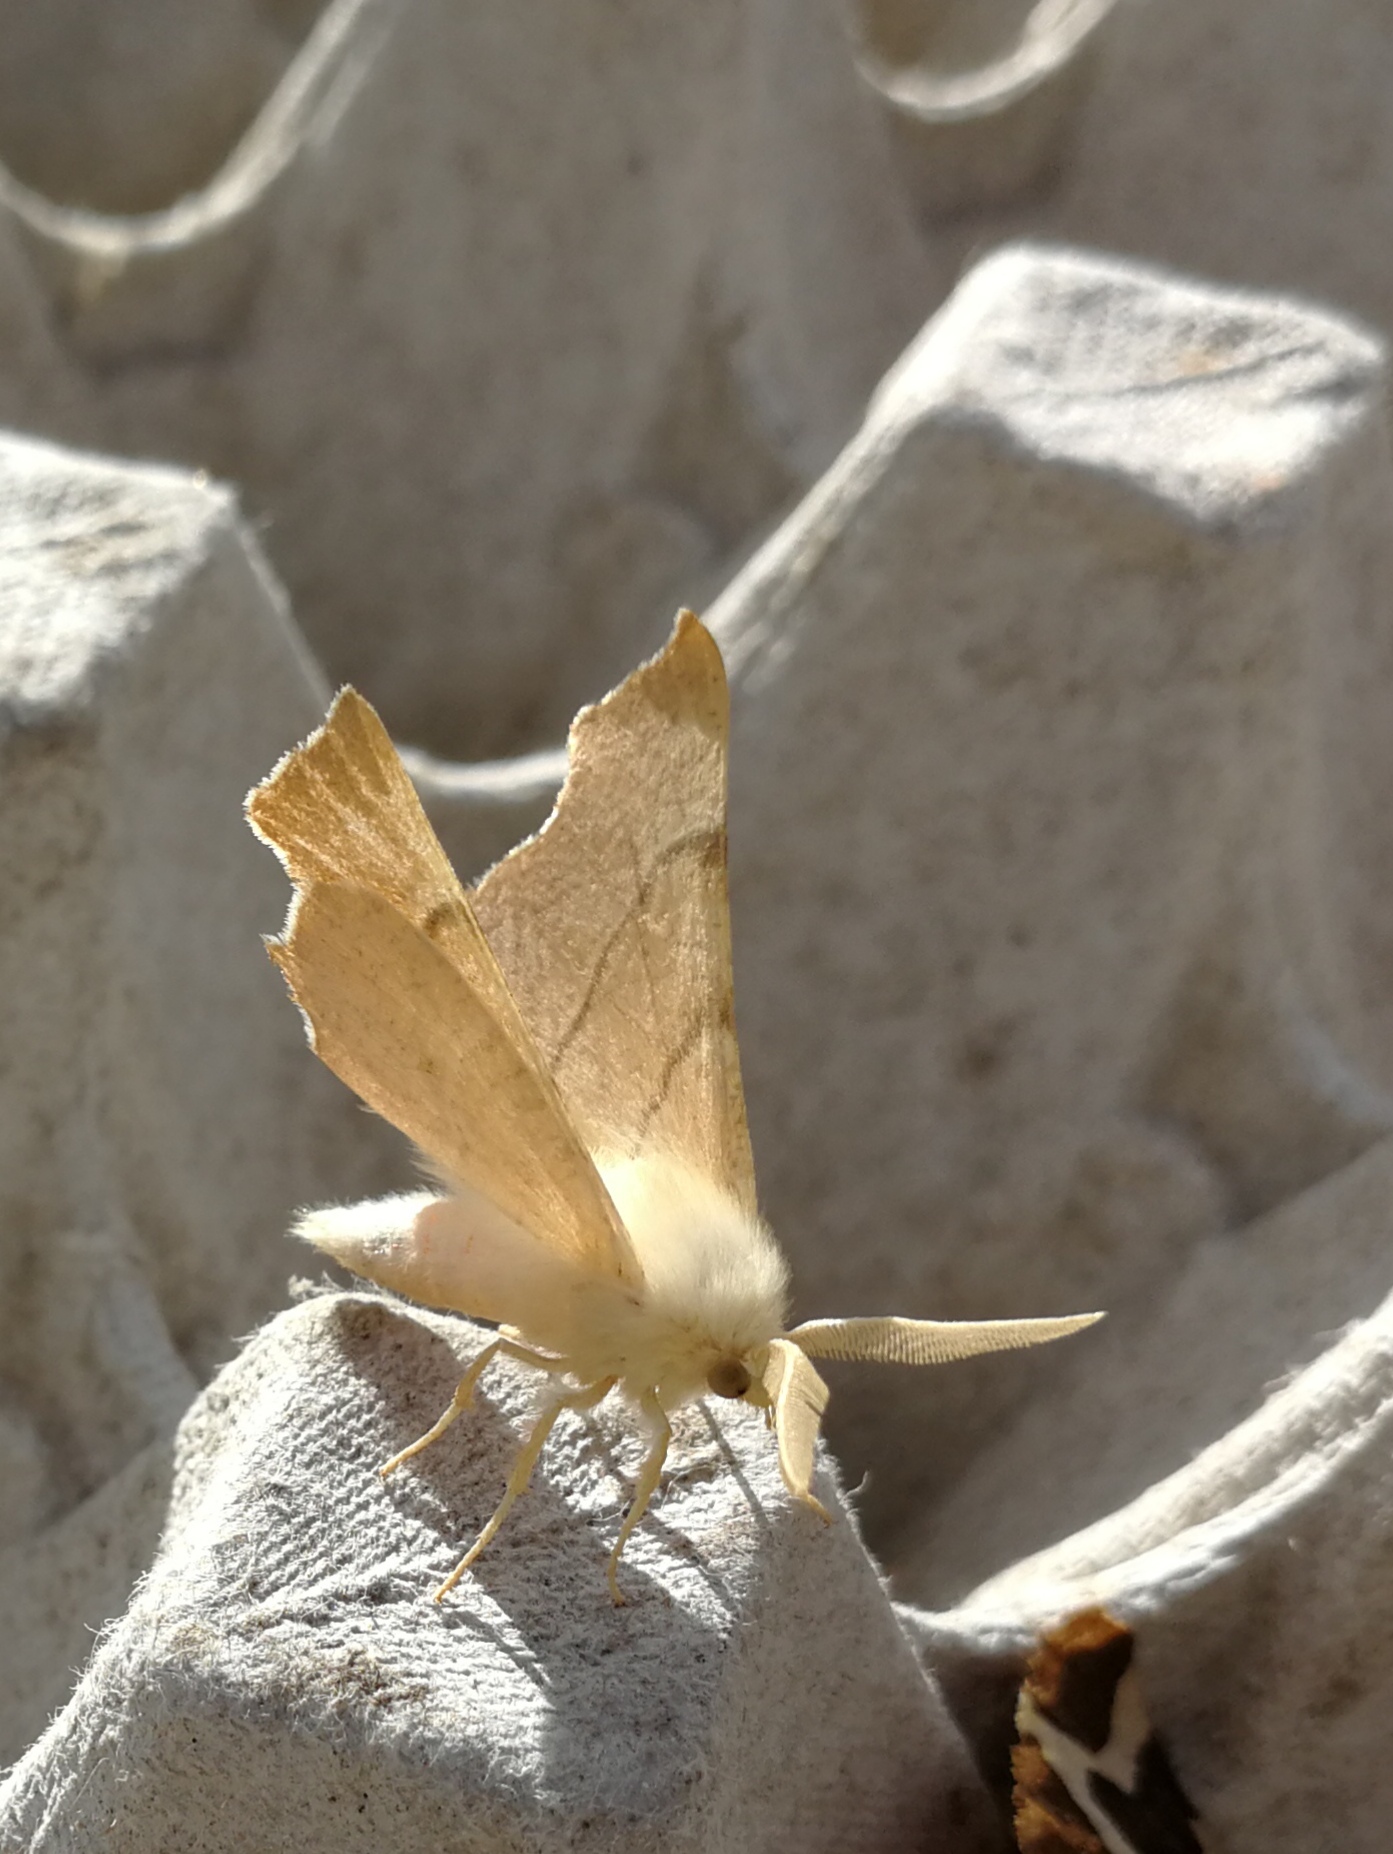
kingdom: Animalia
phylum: Arthropoda
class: Insecta
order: Lepidoptera
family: Geometridae
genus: Ennomos
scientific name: Ennomos quercaria
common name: Clouded august thorn
